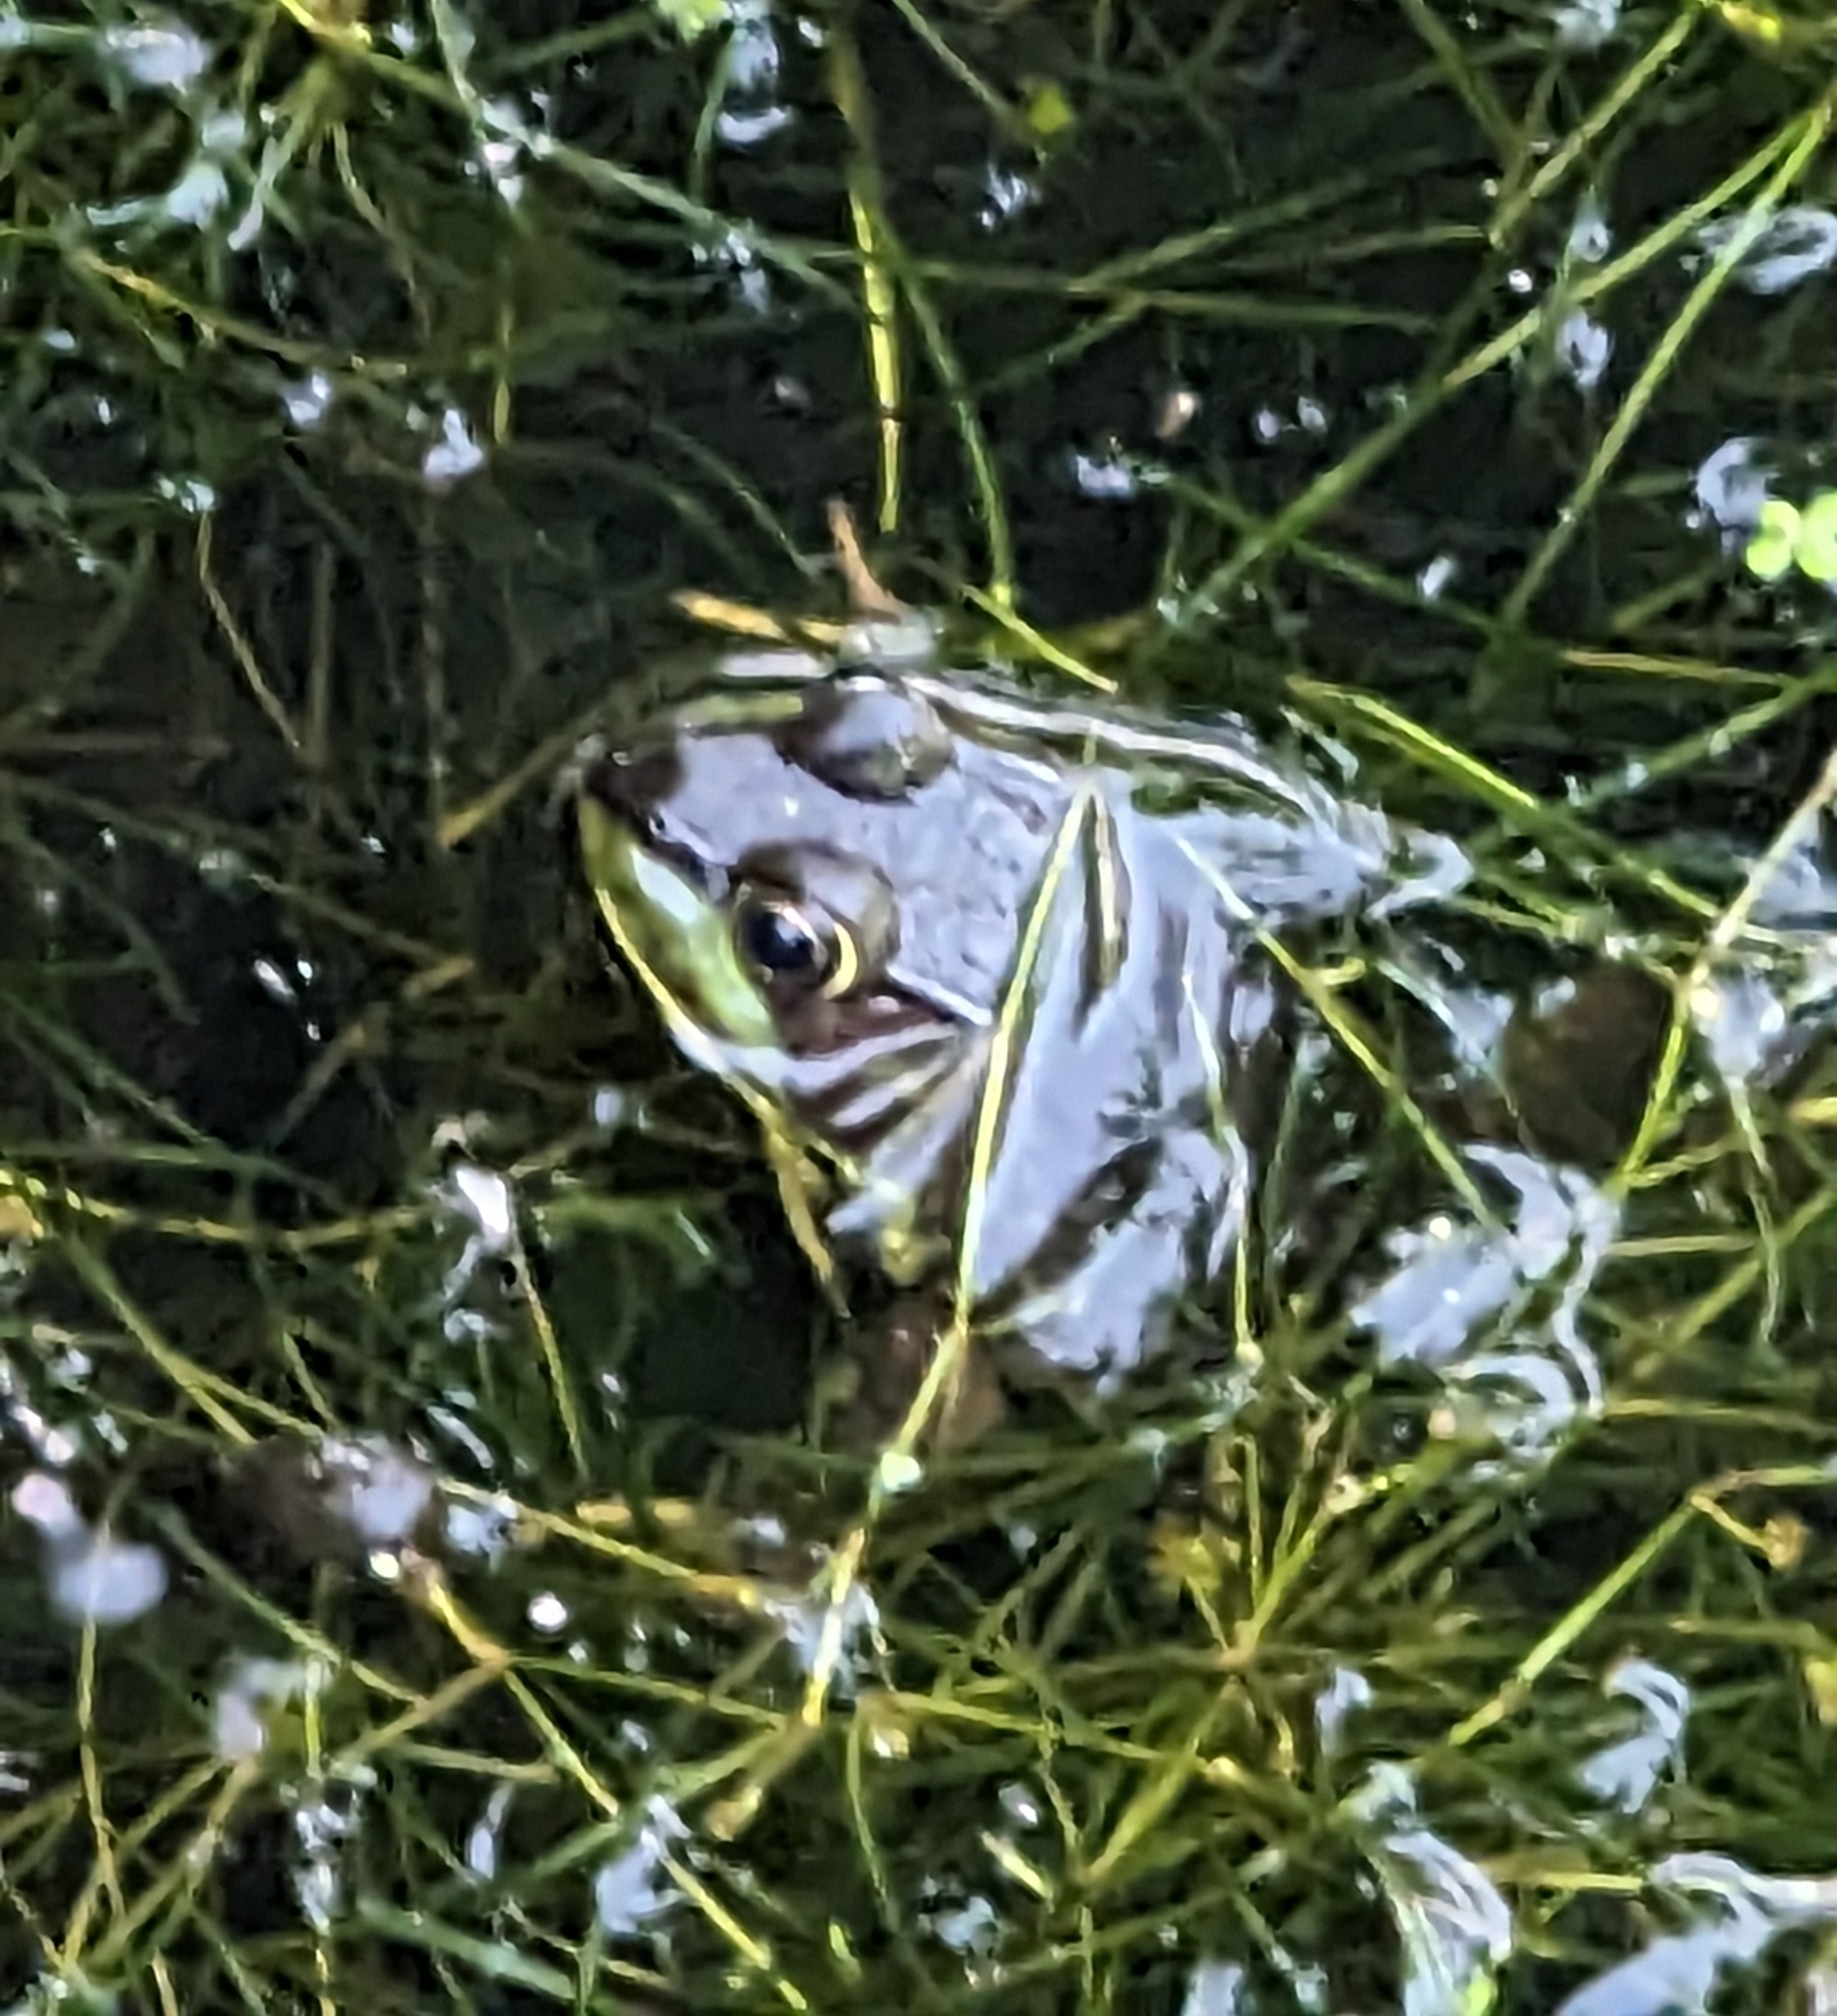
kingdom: Animalia
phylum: Chordata
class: Amphibia
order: Anura
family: Ranidae
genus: Lithobates
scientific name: Lithobates clamitans
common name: Green frog
